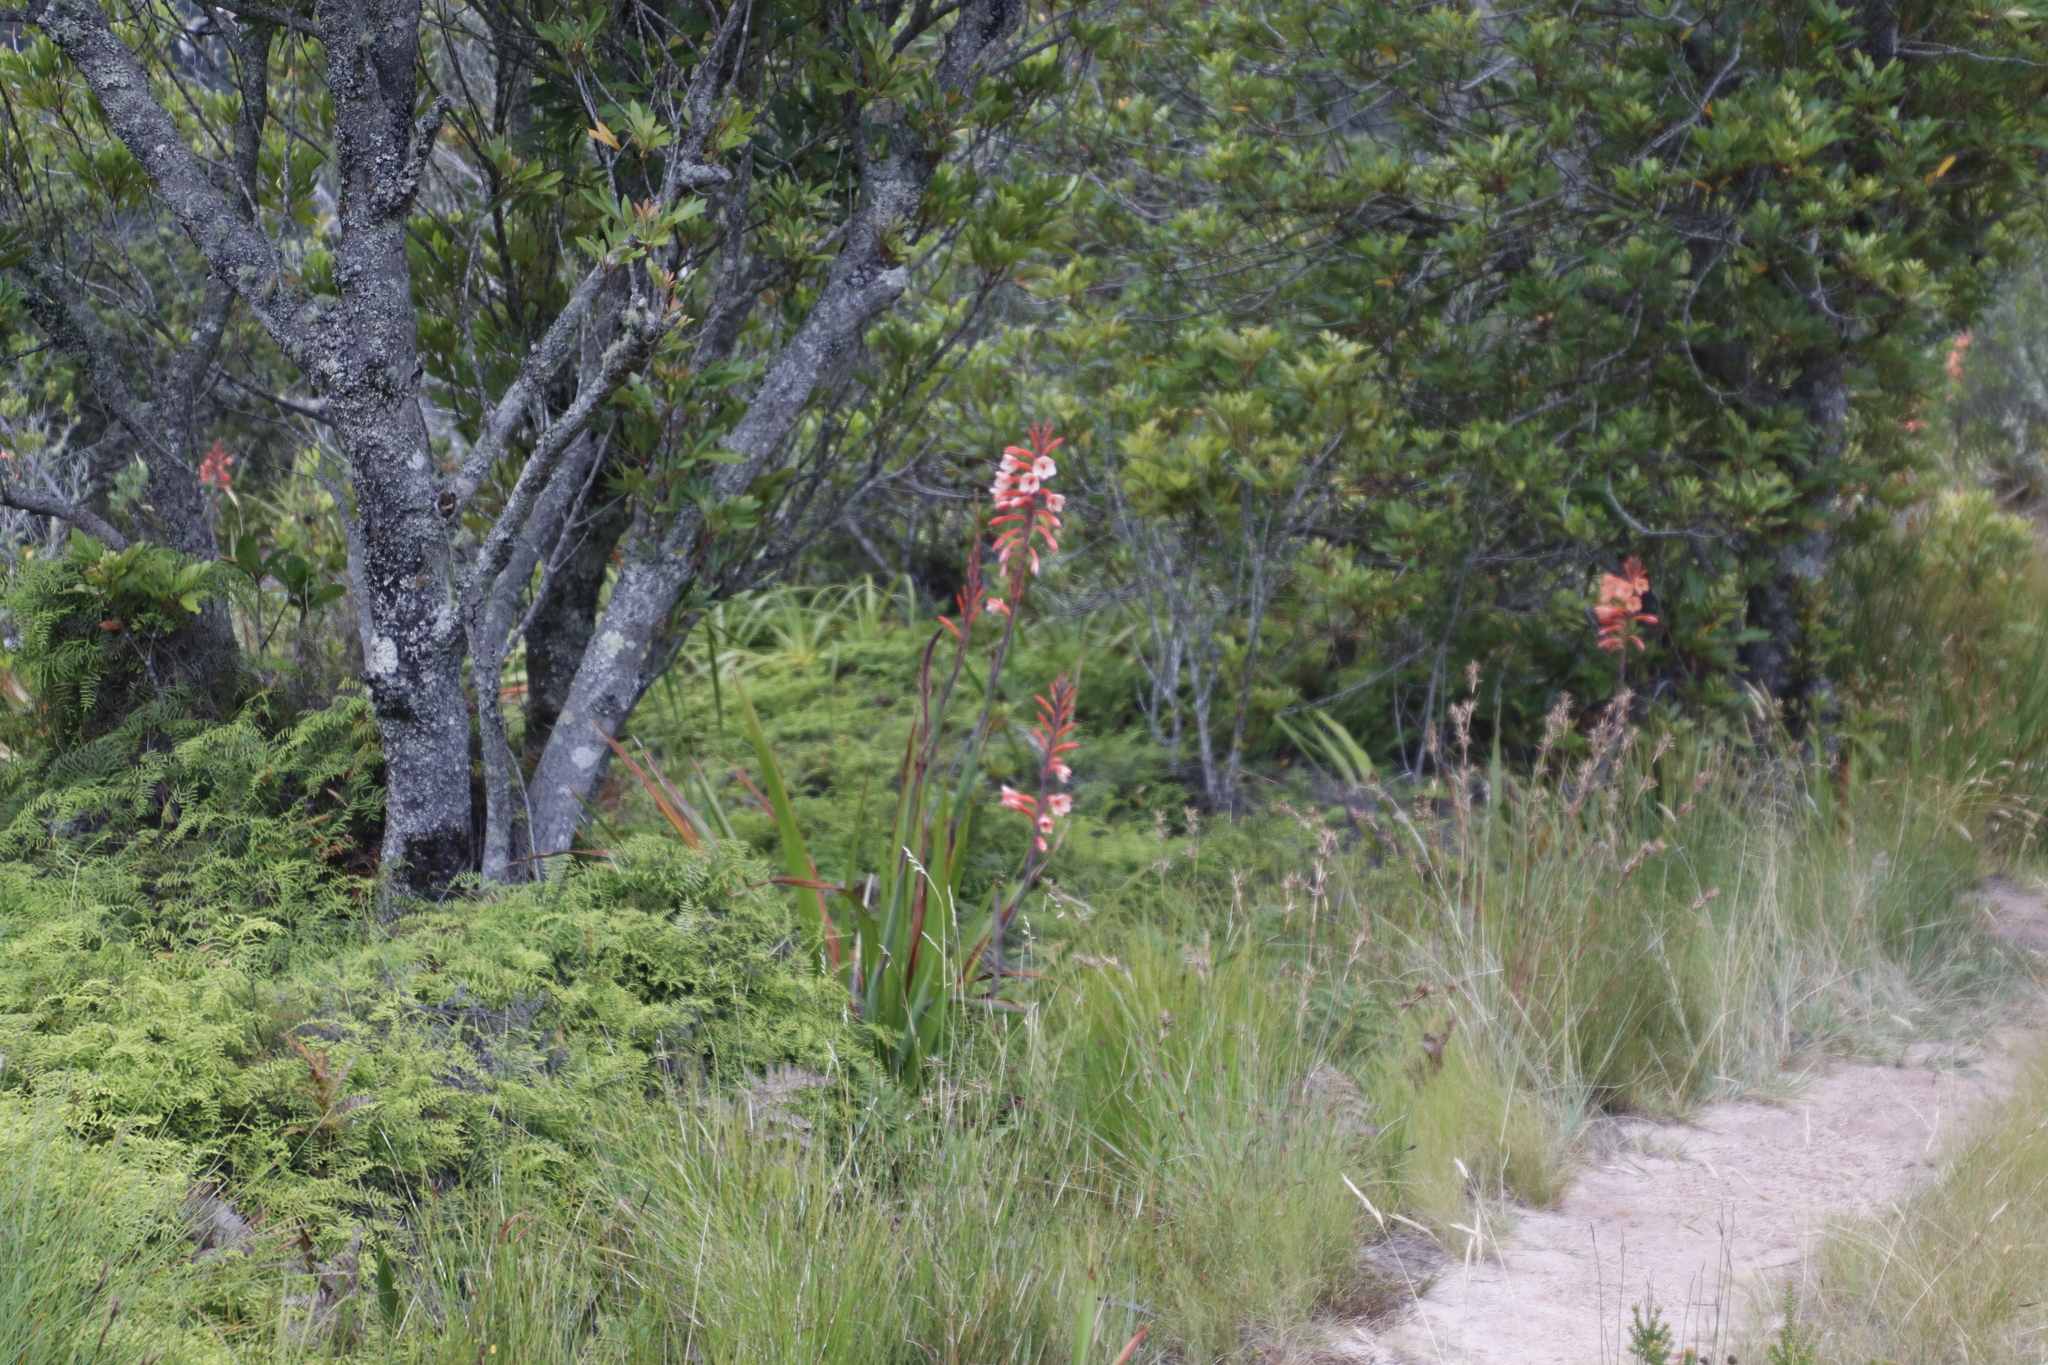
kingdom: Plantae
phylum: Tracheophyta
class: Liliopsida
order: Asparagales
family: Iridaceae
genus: Watsonia
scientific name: Watsonia tabularis
